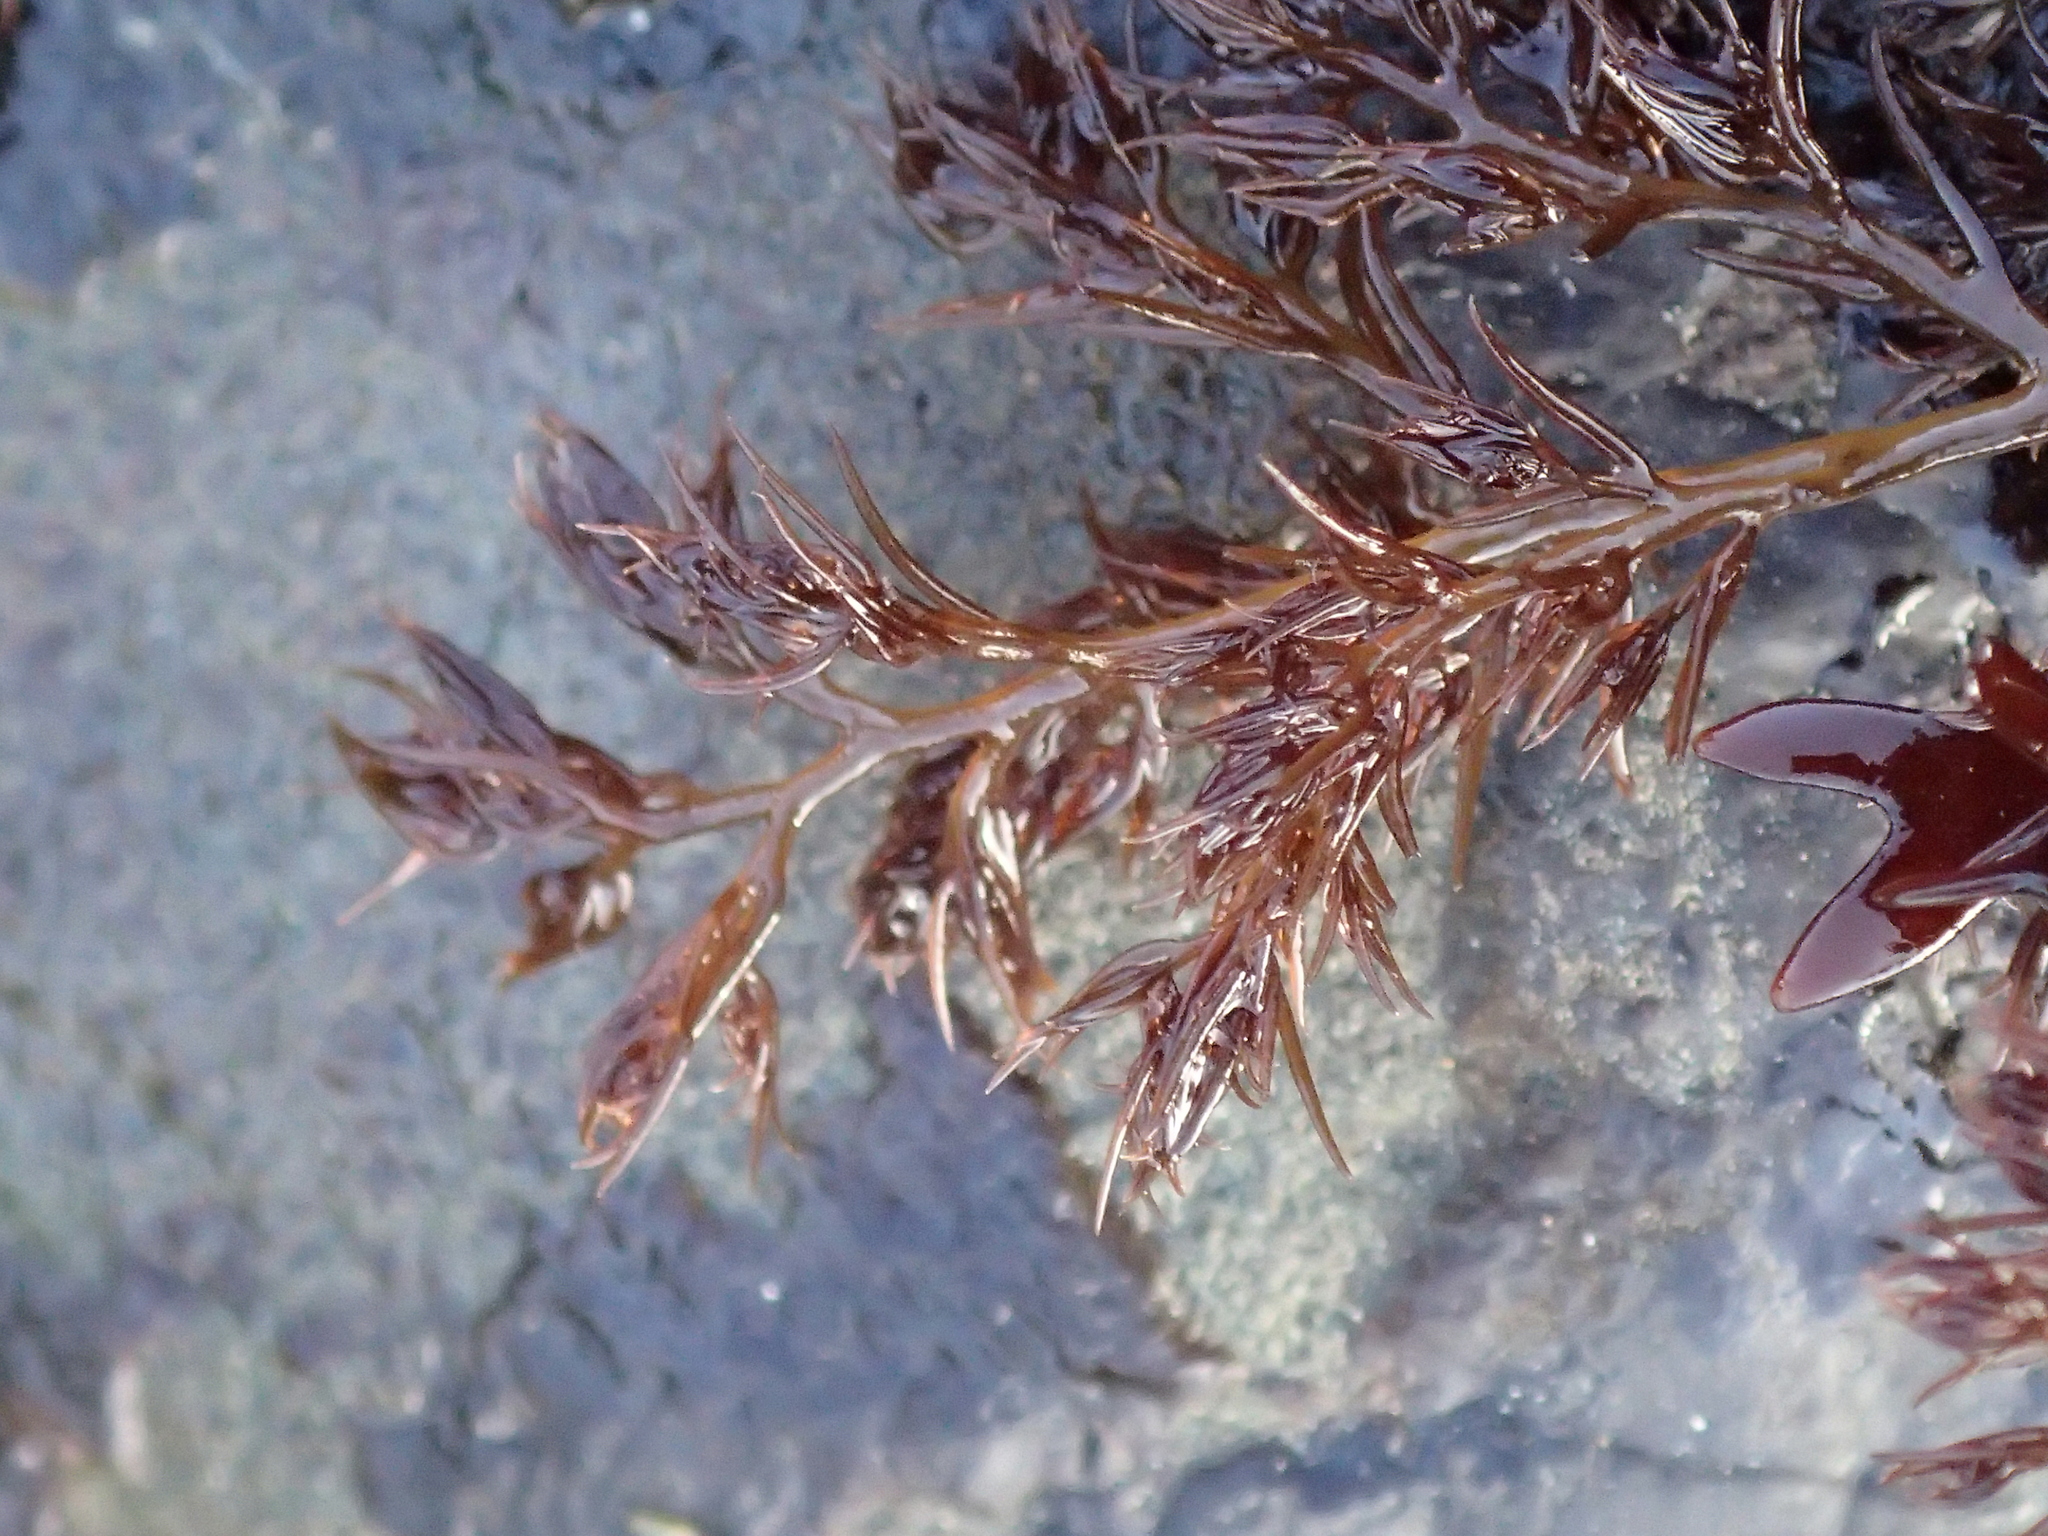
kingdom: Plantae
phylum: Rhodophyta
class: Florideophyceae
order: Ceramiales
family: Rhodomelaceae
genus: Odonthalia
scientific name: Odonthalia floccosa
